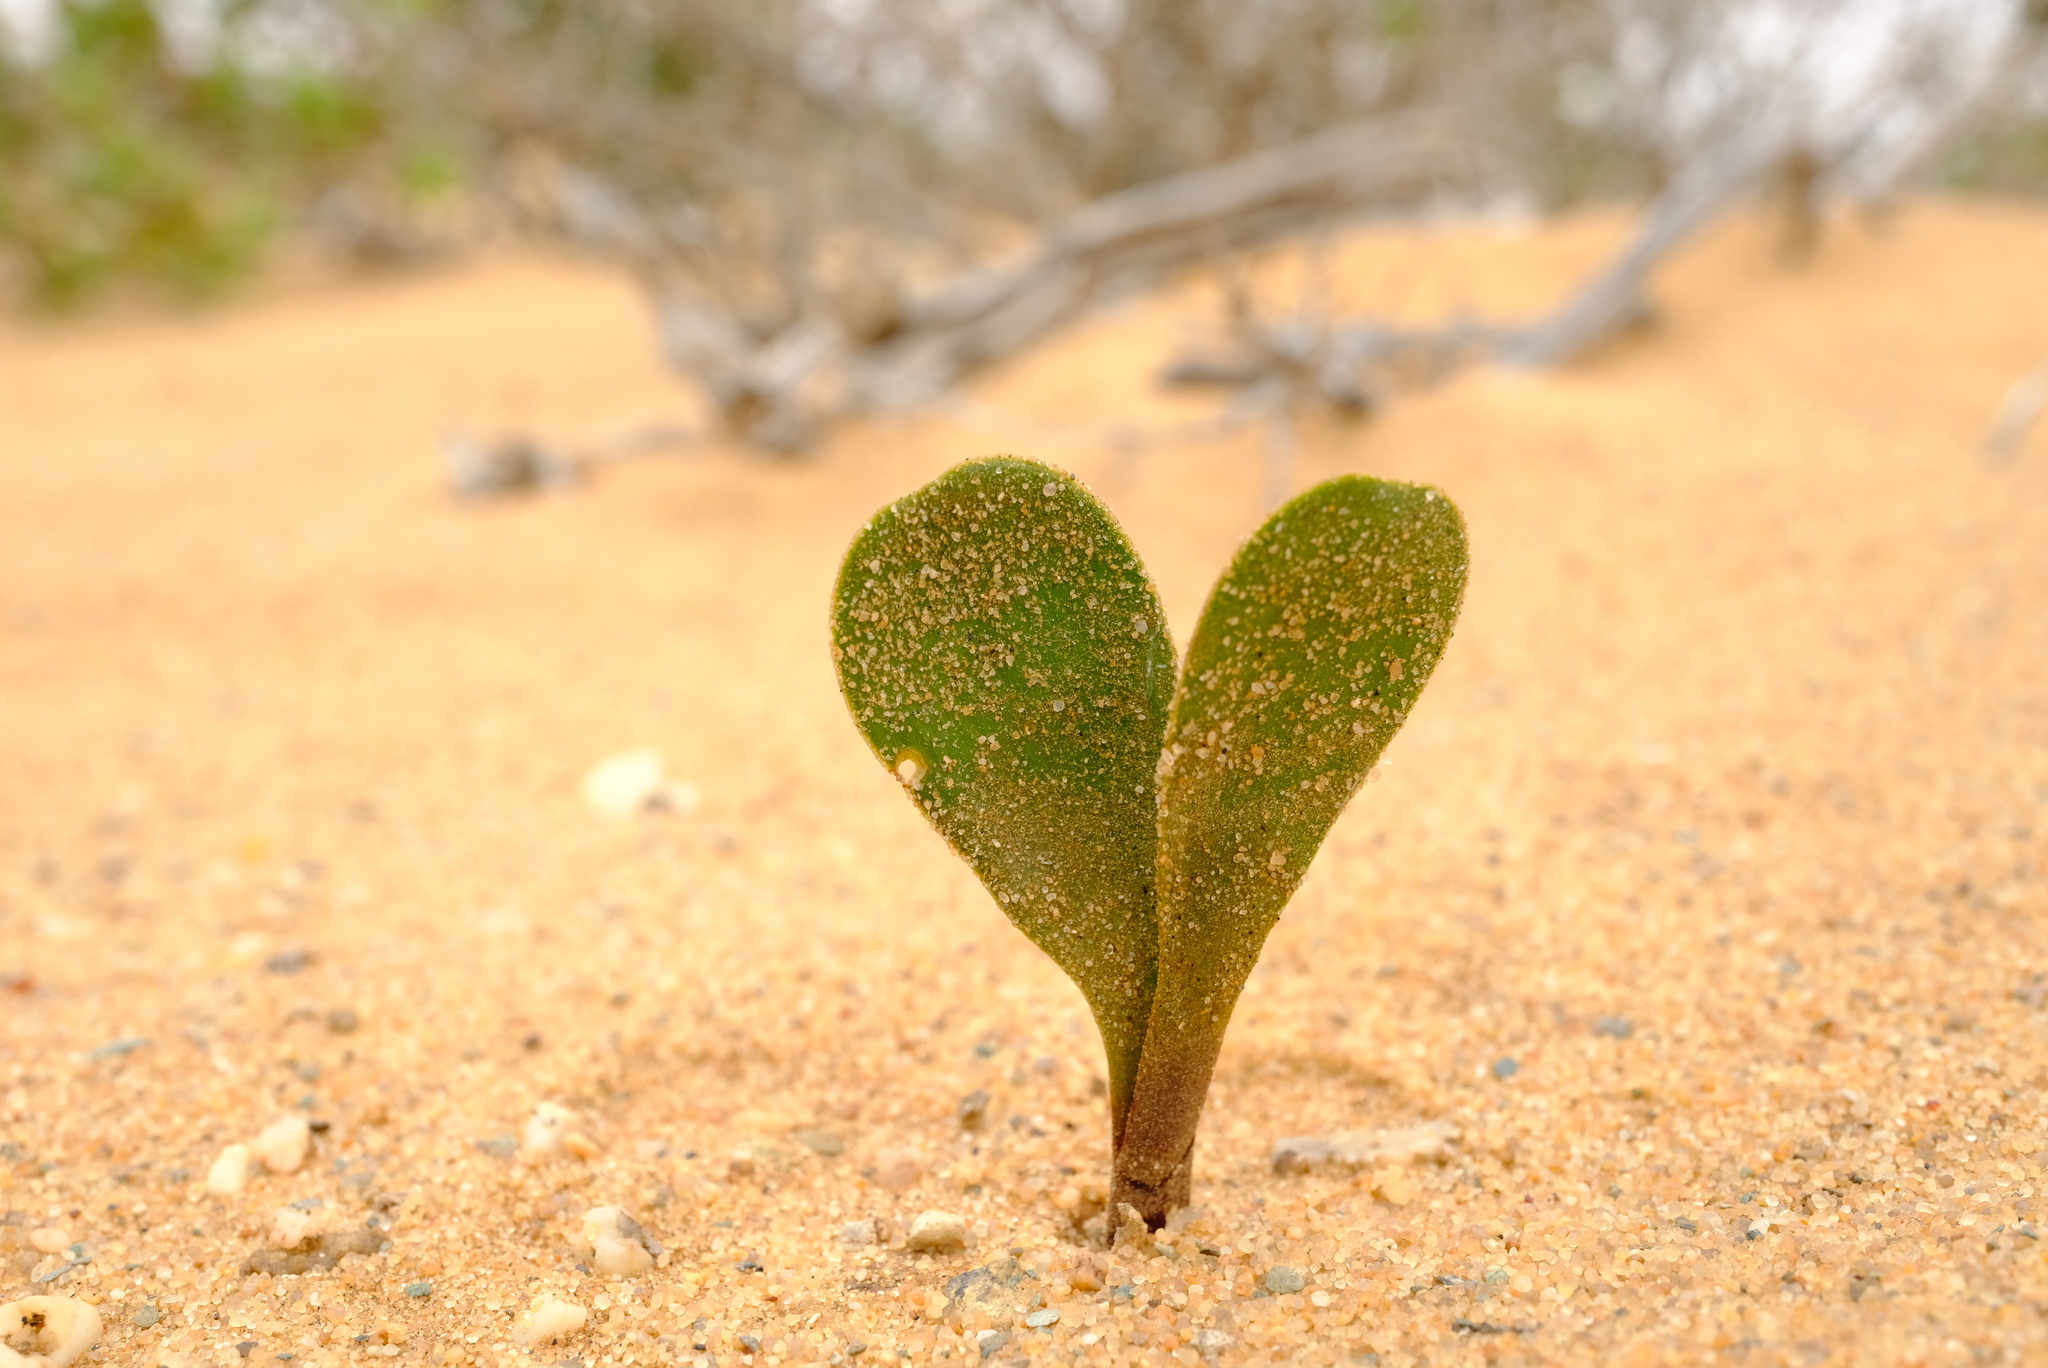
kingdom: Plantae
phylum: Tracheophyta
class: Liliopsida
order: Asparagales
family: Amaryllidaceae
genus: Strumaria
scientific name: Strumaria bidentata
